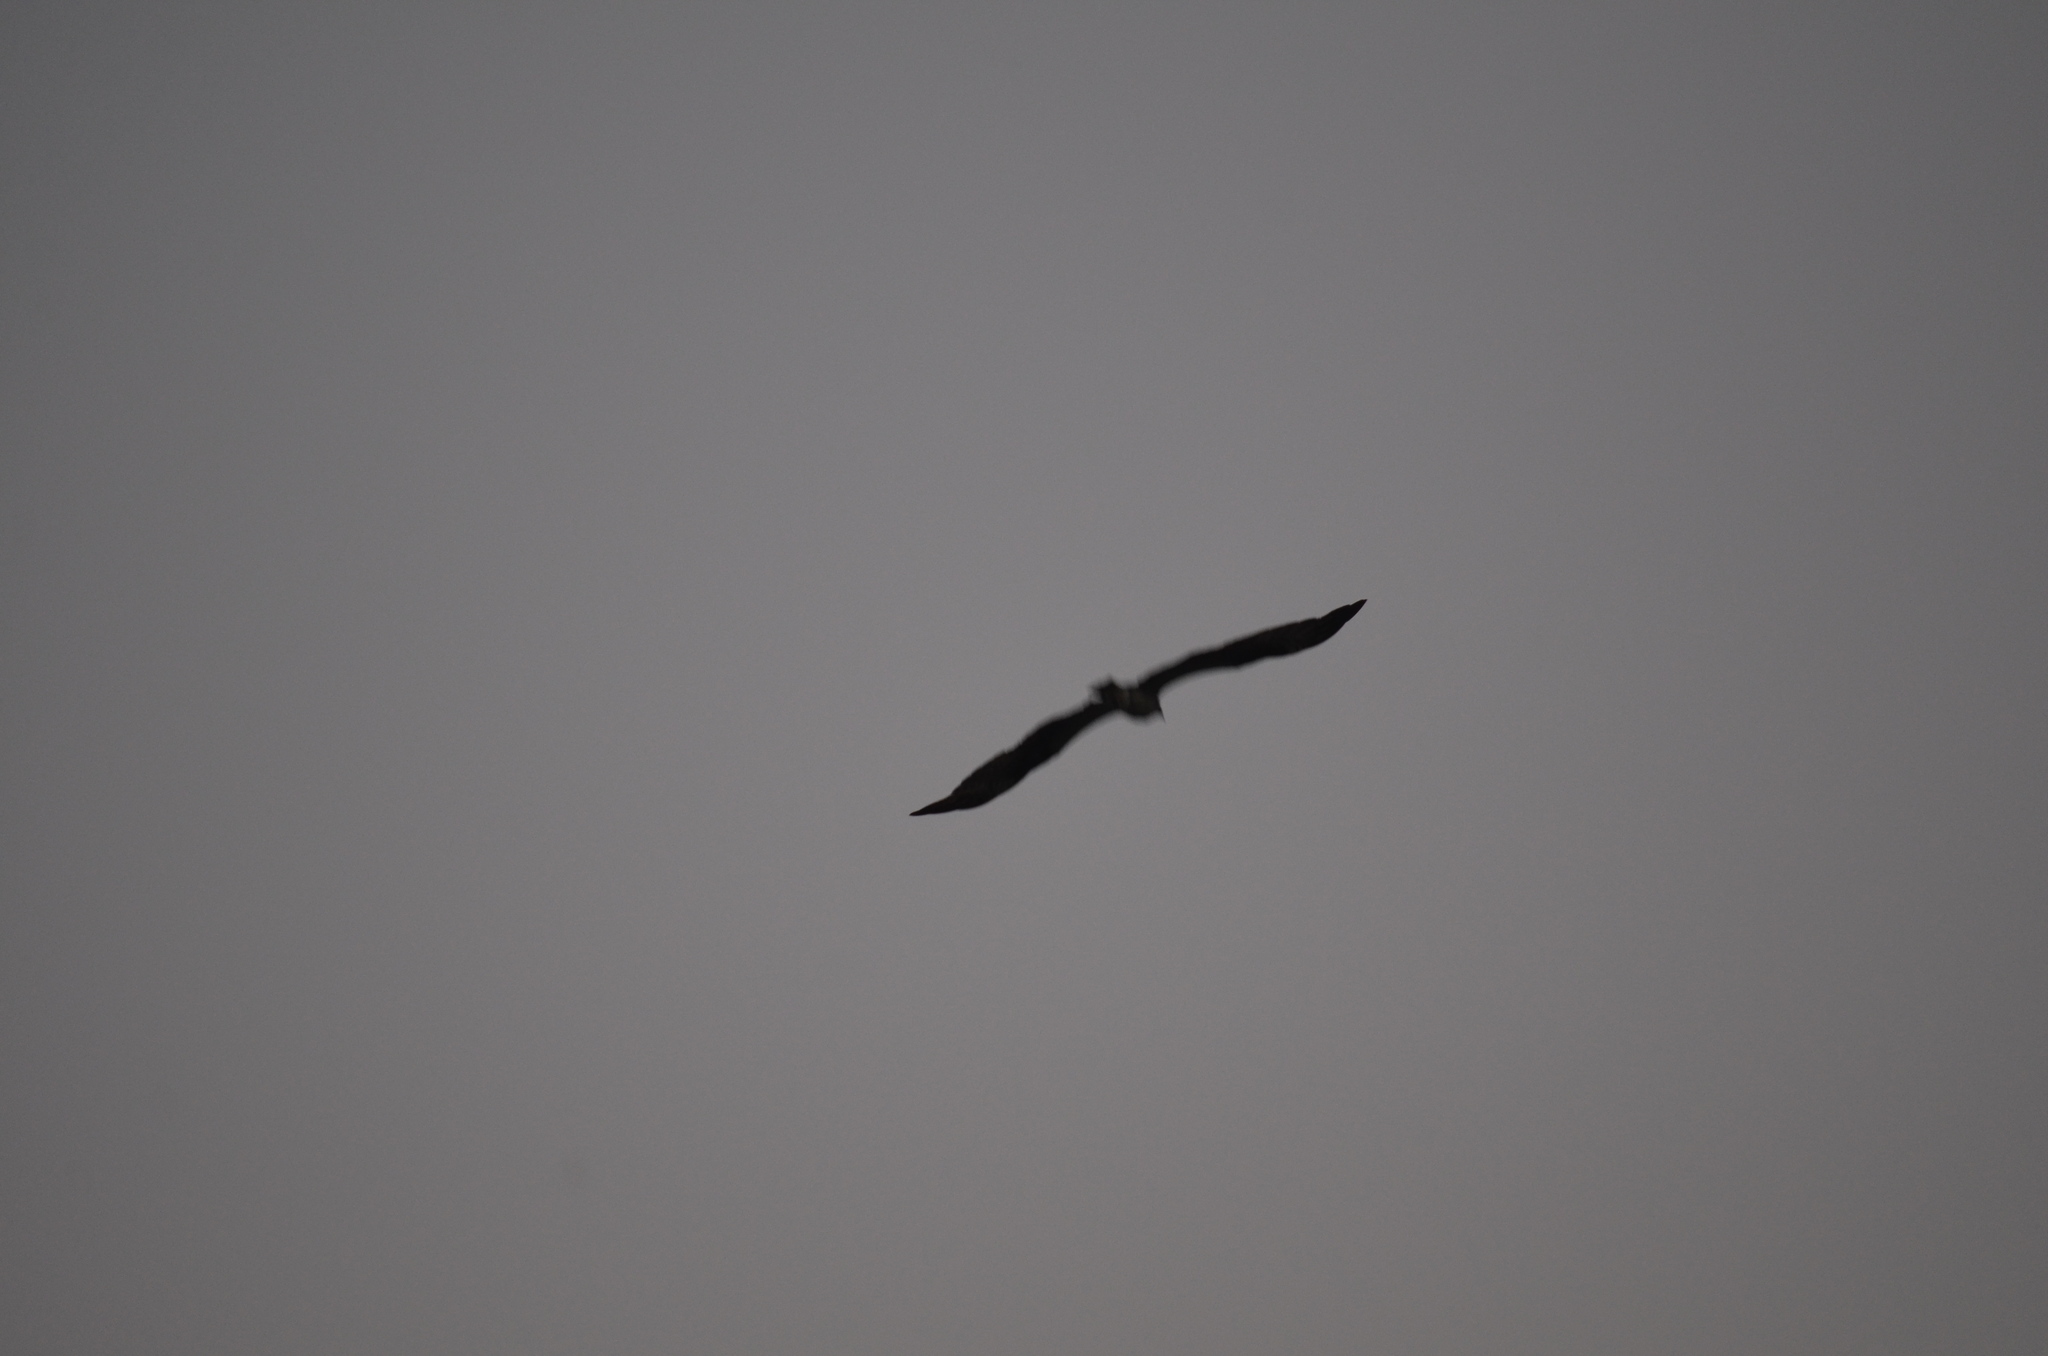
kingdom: Animalia
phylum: Chordata
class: Aves
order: Accipitriformes
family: Pandionidae
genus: Pandion
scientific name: Pandion haliaetus
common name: Osprey
